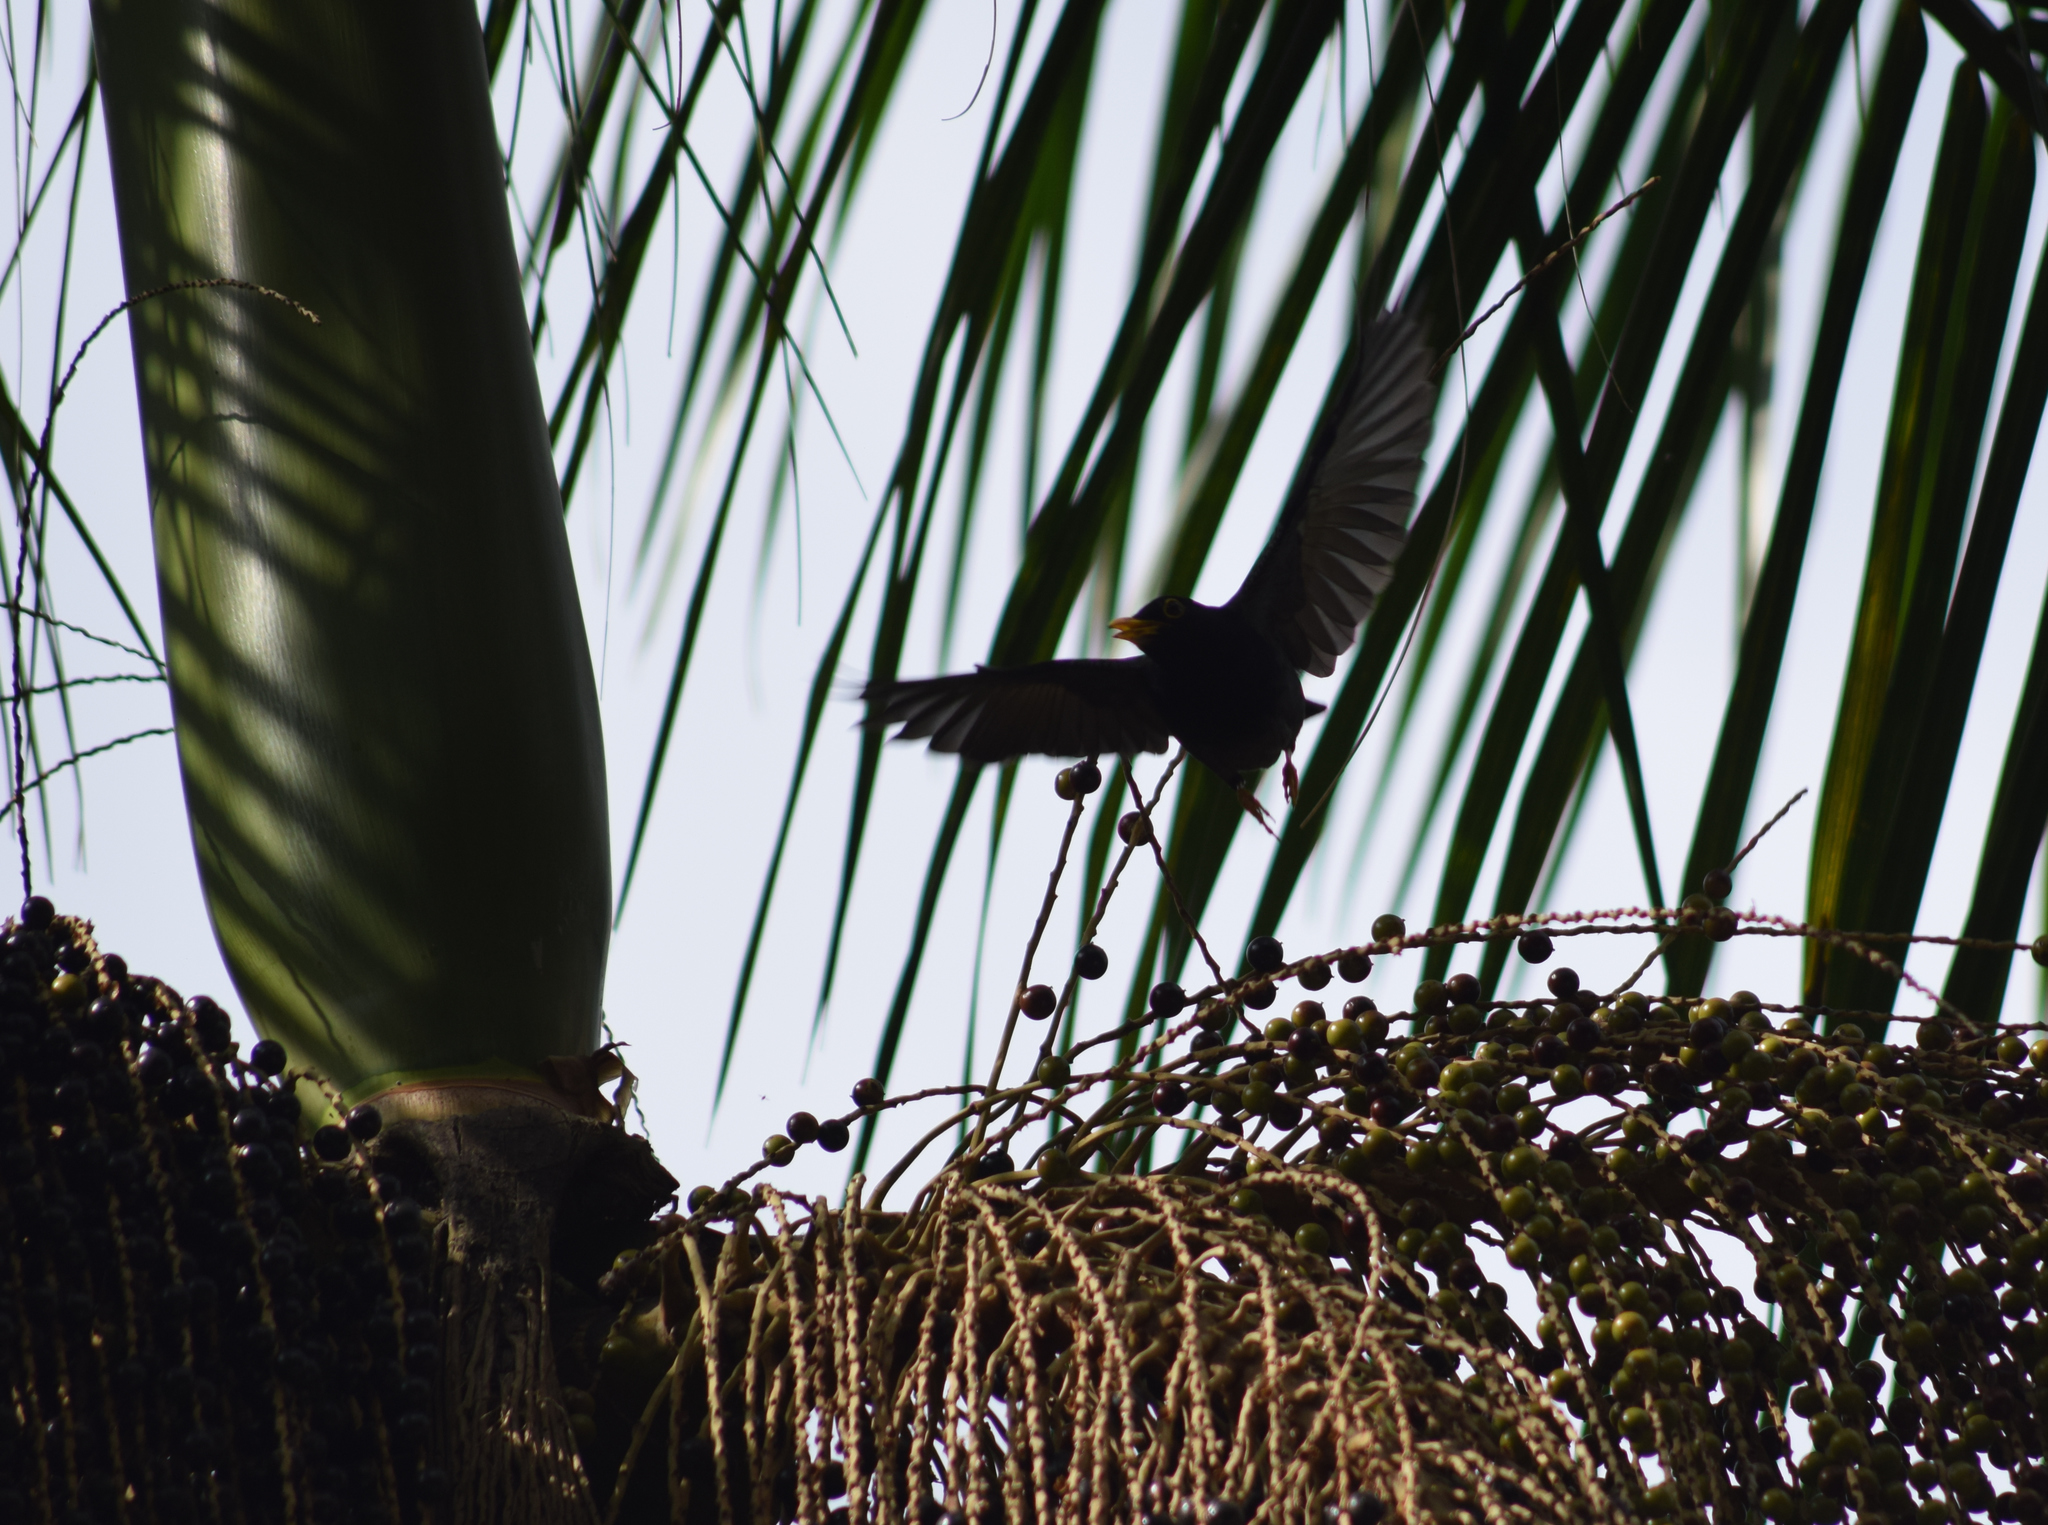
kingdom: Animalia
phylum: Chordata
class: Aves
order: Passeriformes
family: Turdidae
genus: Turdus
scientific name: Turdus flavipes
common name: Yellow-legged thrush
